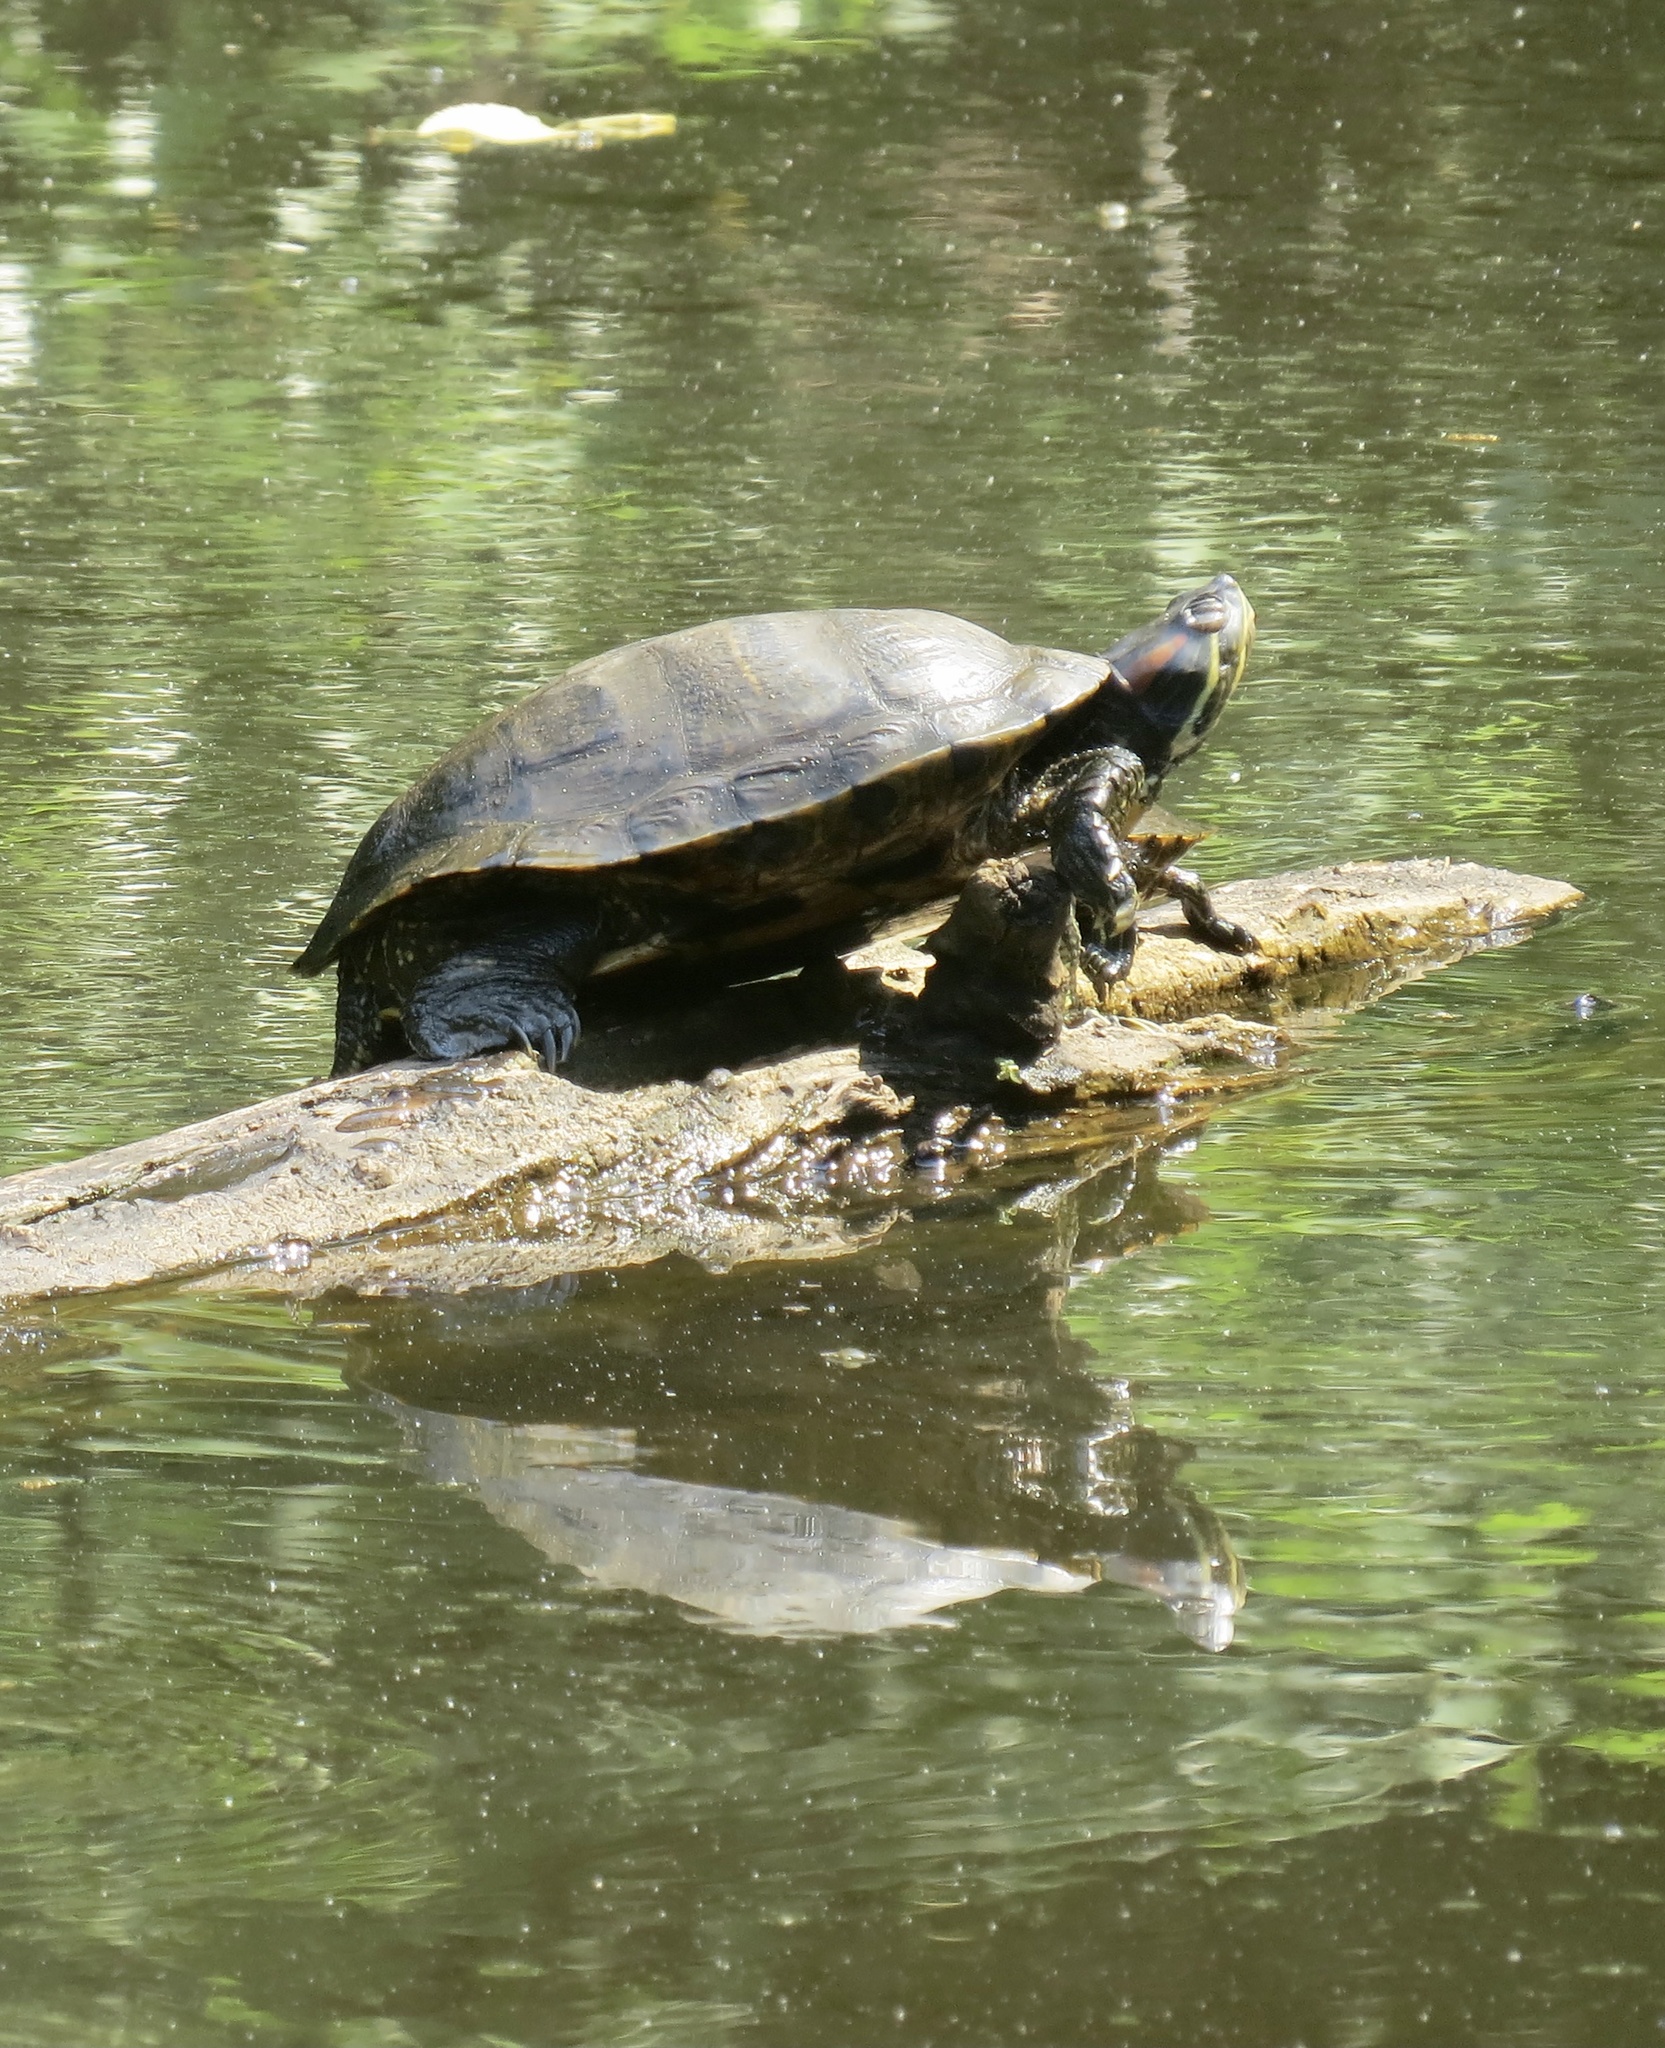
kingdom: Animalia
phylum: Chordata
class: Testudines
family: Emydidae
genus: Trachemys
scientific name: Trachemys scripta
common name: Slider
